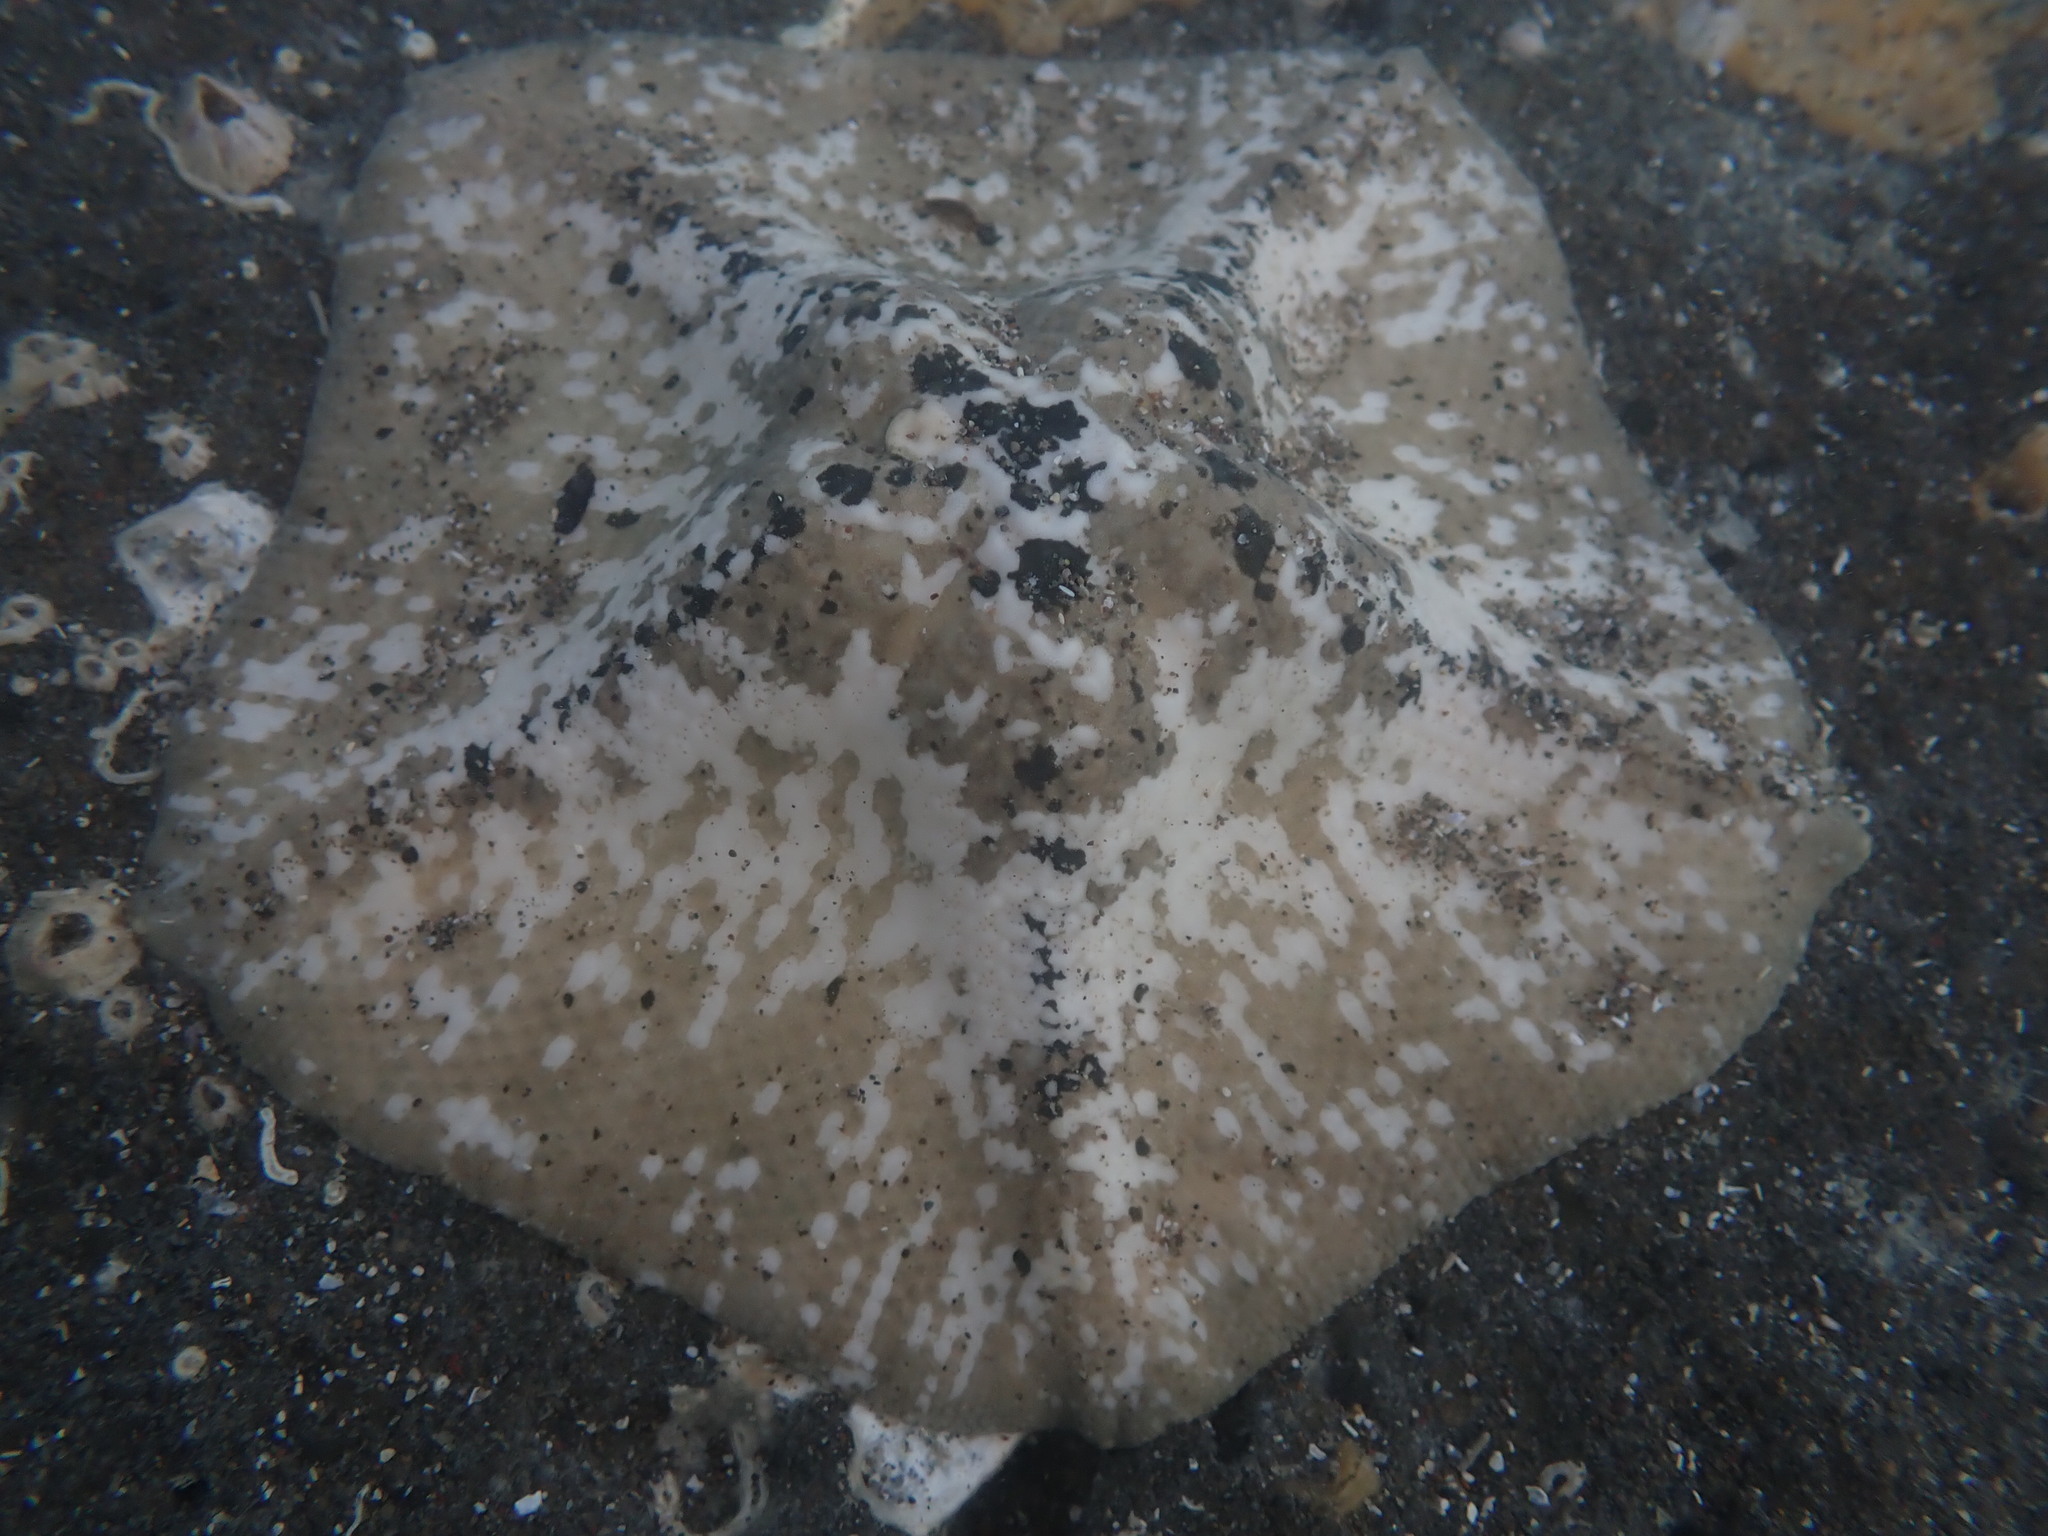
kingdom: Animalia
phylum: Echinodermata
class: Asteroidea
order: Valvatida
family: Asterinidae
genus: Stegnaster
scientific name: Stegnaster inflatus
